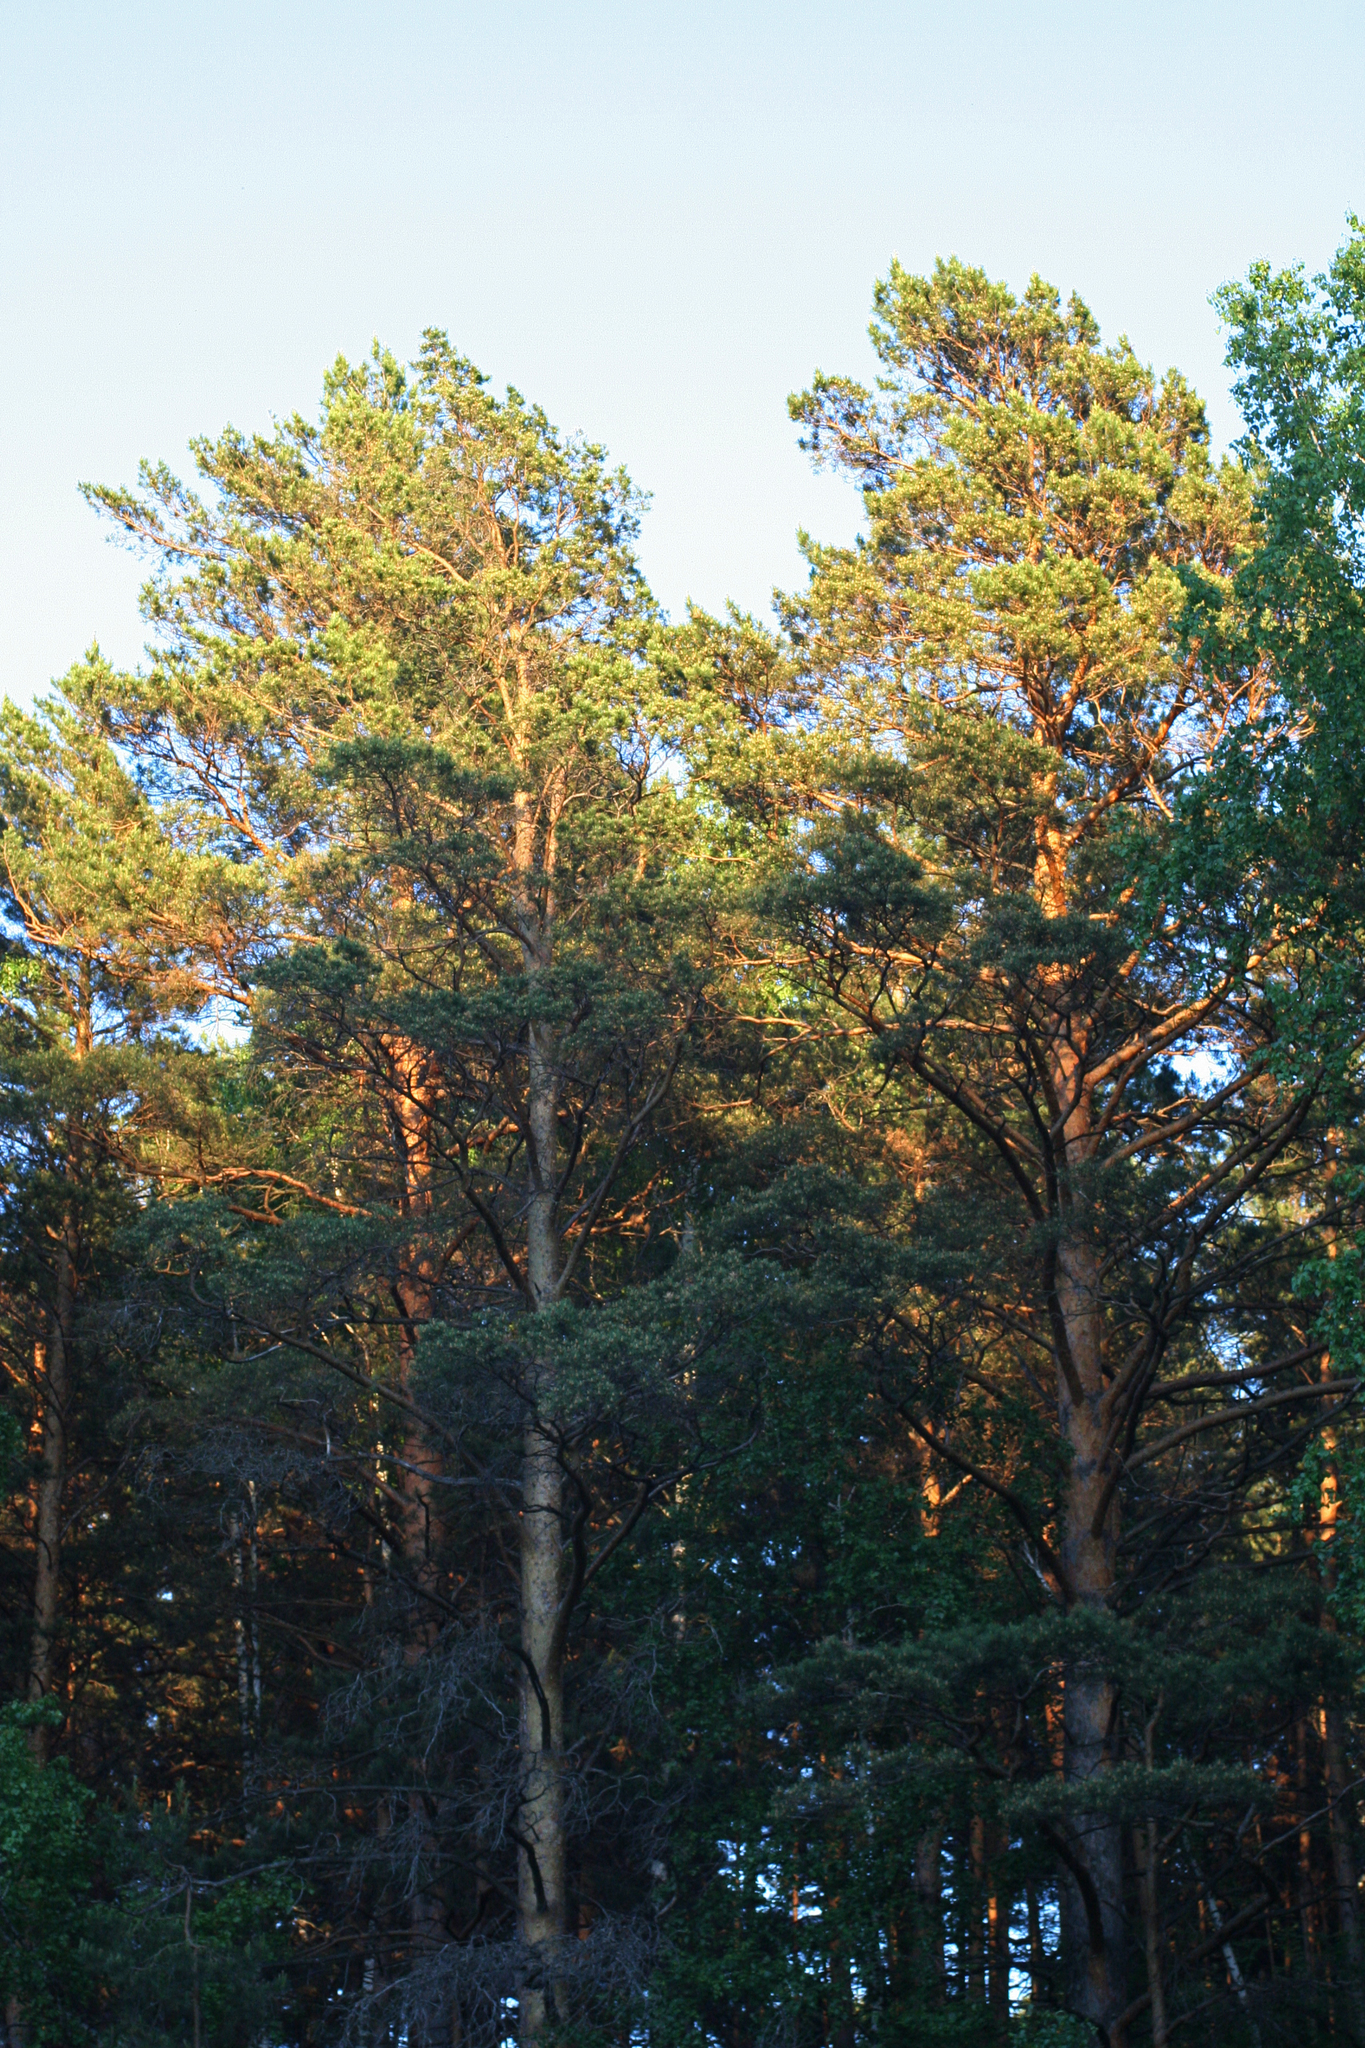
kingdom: Plantae
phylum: Tracheophyta
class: Pinopsida
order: Pinales
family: Pinaceae
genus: Pinus
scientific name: Pinus sylvestris
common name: Scots pine
